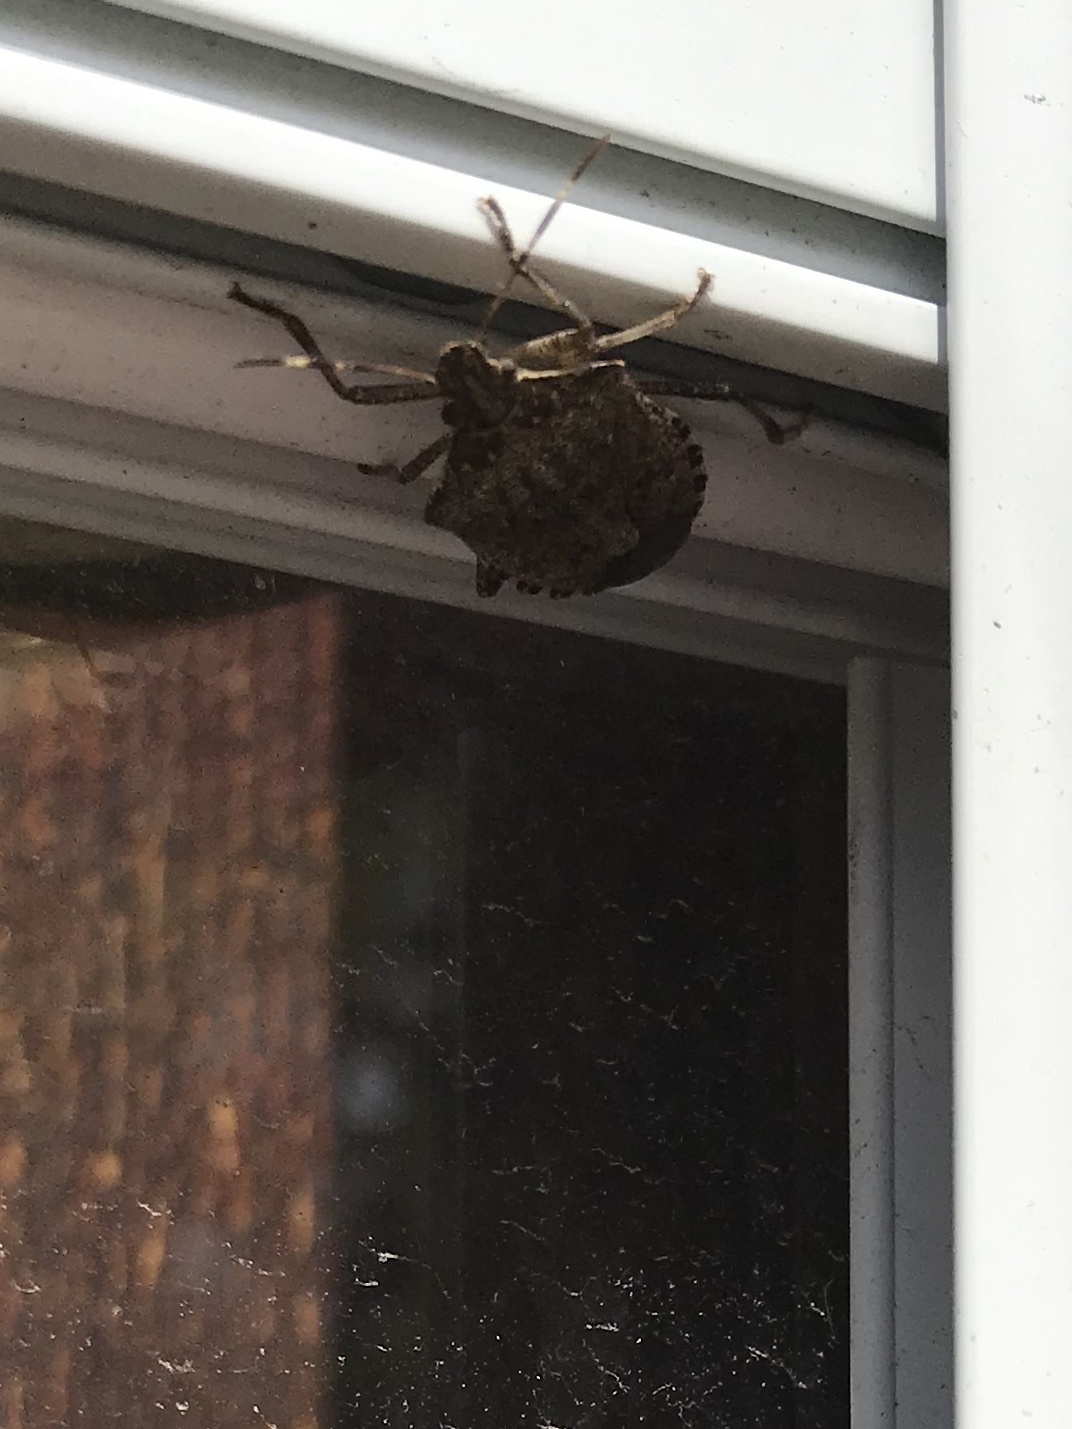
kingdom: Animalia
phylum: Arthropoda
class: Insecta
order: Hemiptera
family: Pentatomidae
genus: Halyomorpha
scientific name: Halyomorpha halys
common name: Brown marmorated stink bug
